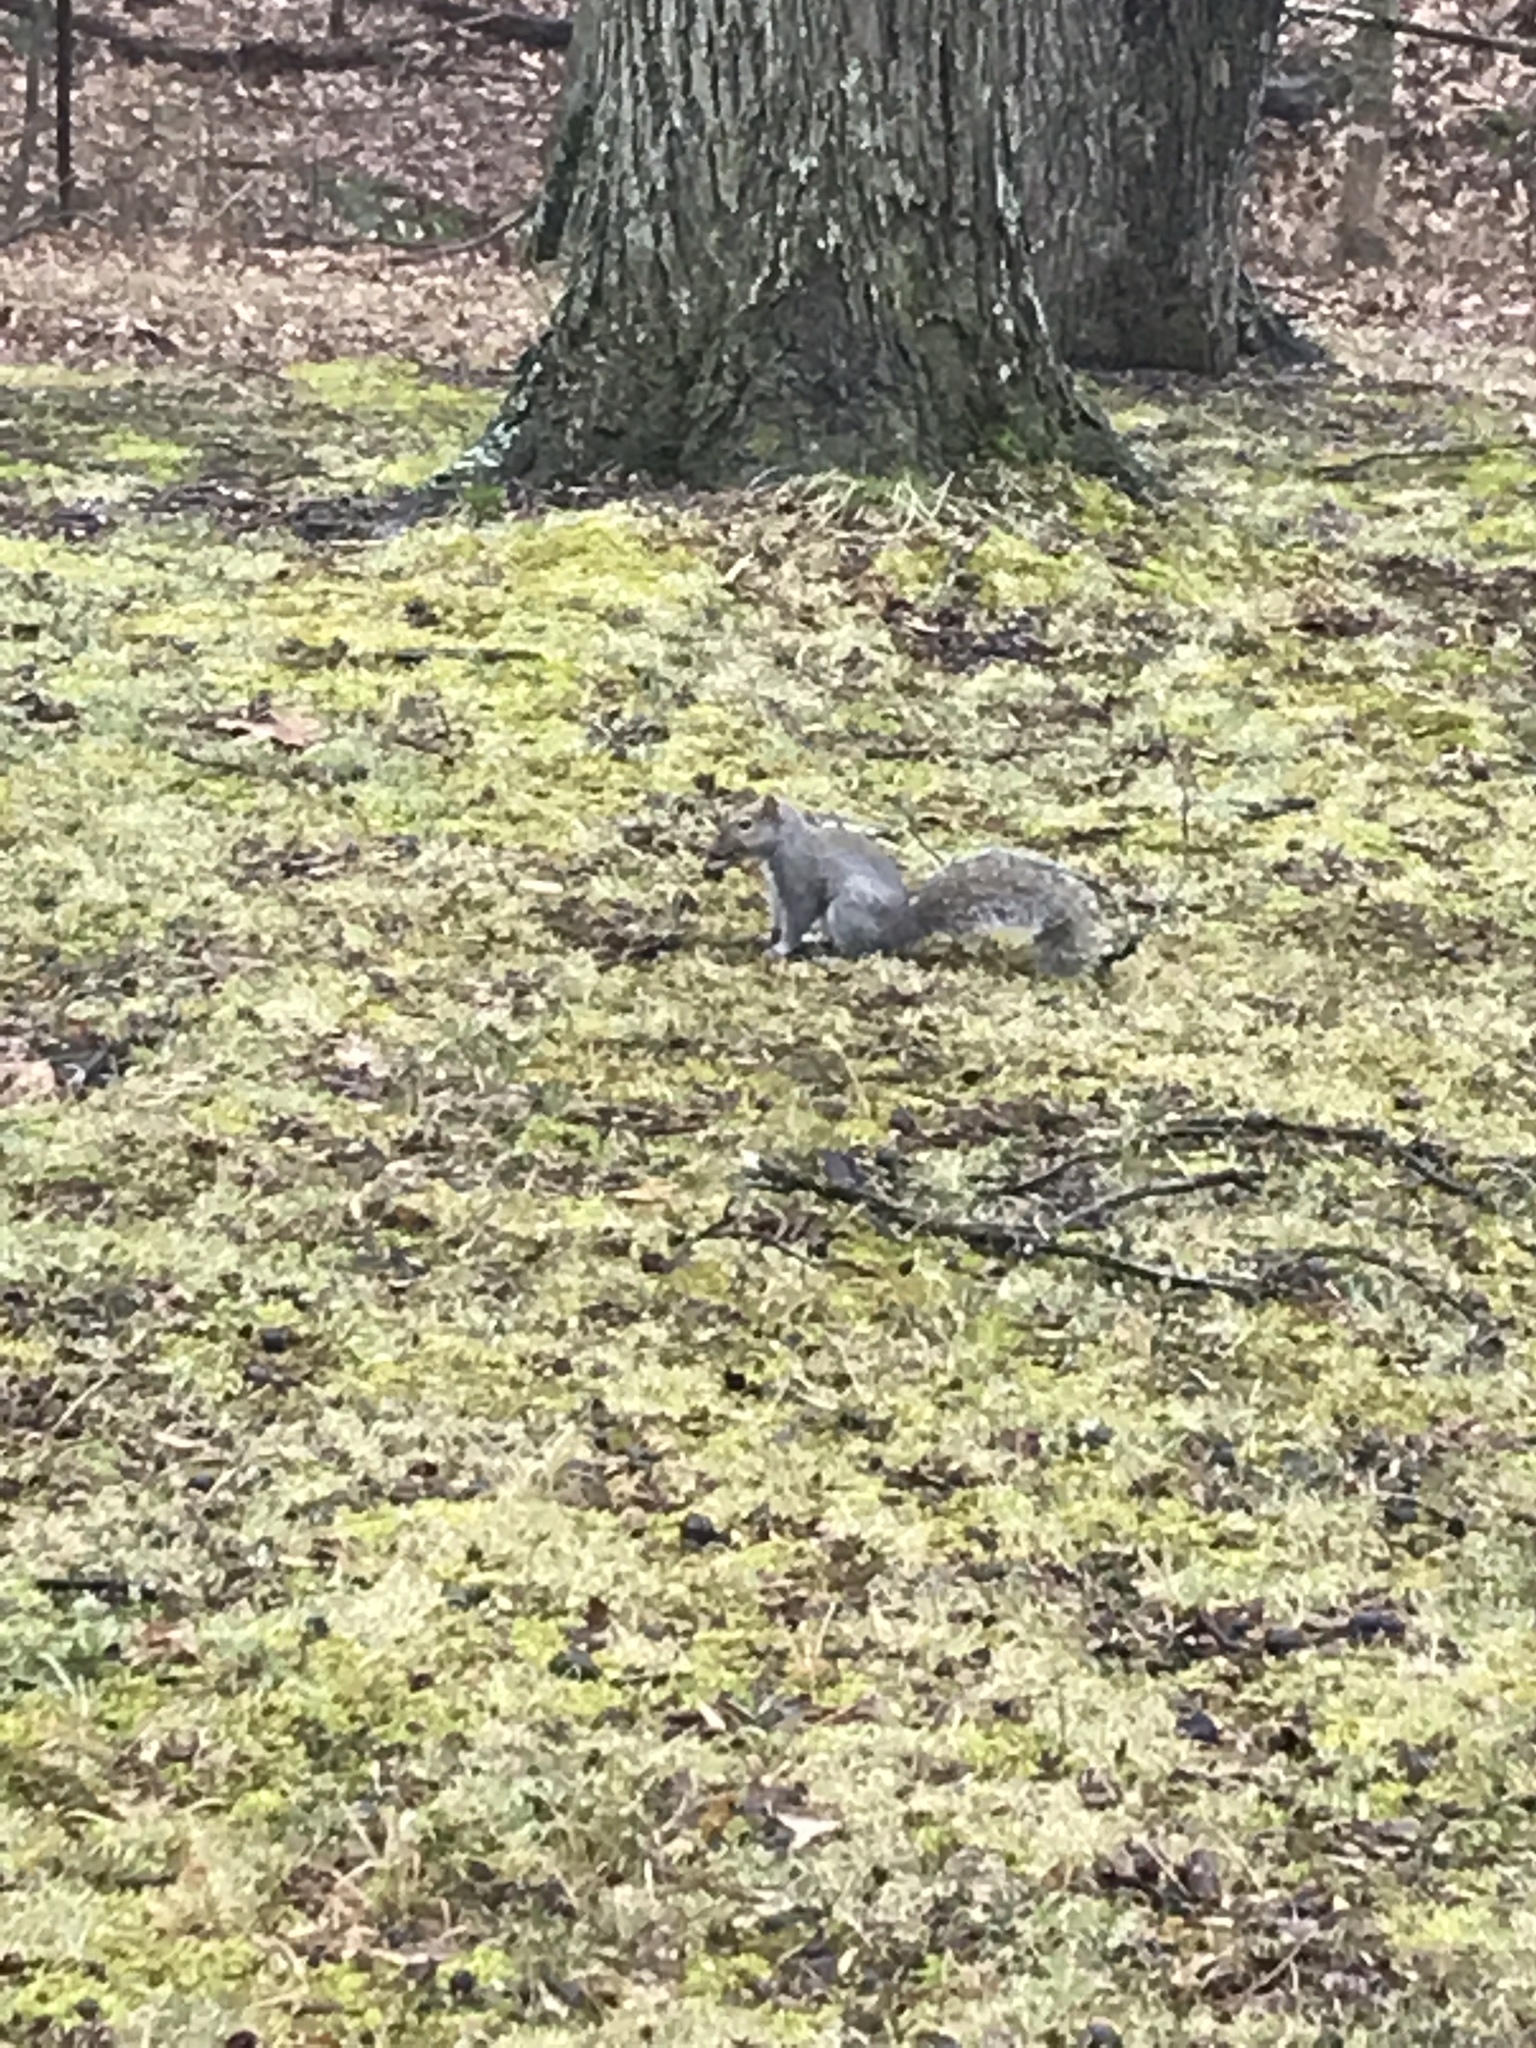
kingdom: Animalia
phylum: Chordata
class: Mammalia
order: Rodentia
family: Sciuridae
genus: Sciurus
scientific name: Sciurus carolinensis
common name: Eastern gray squirrel
